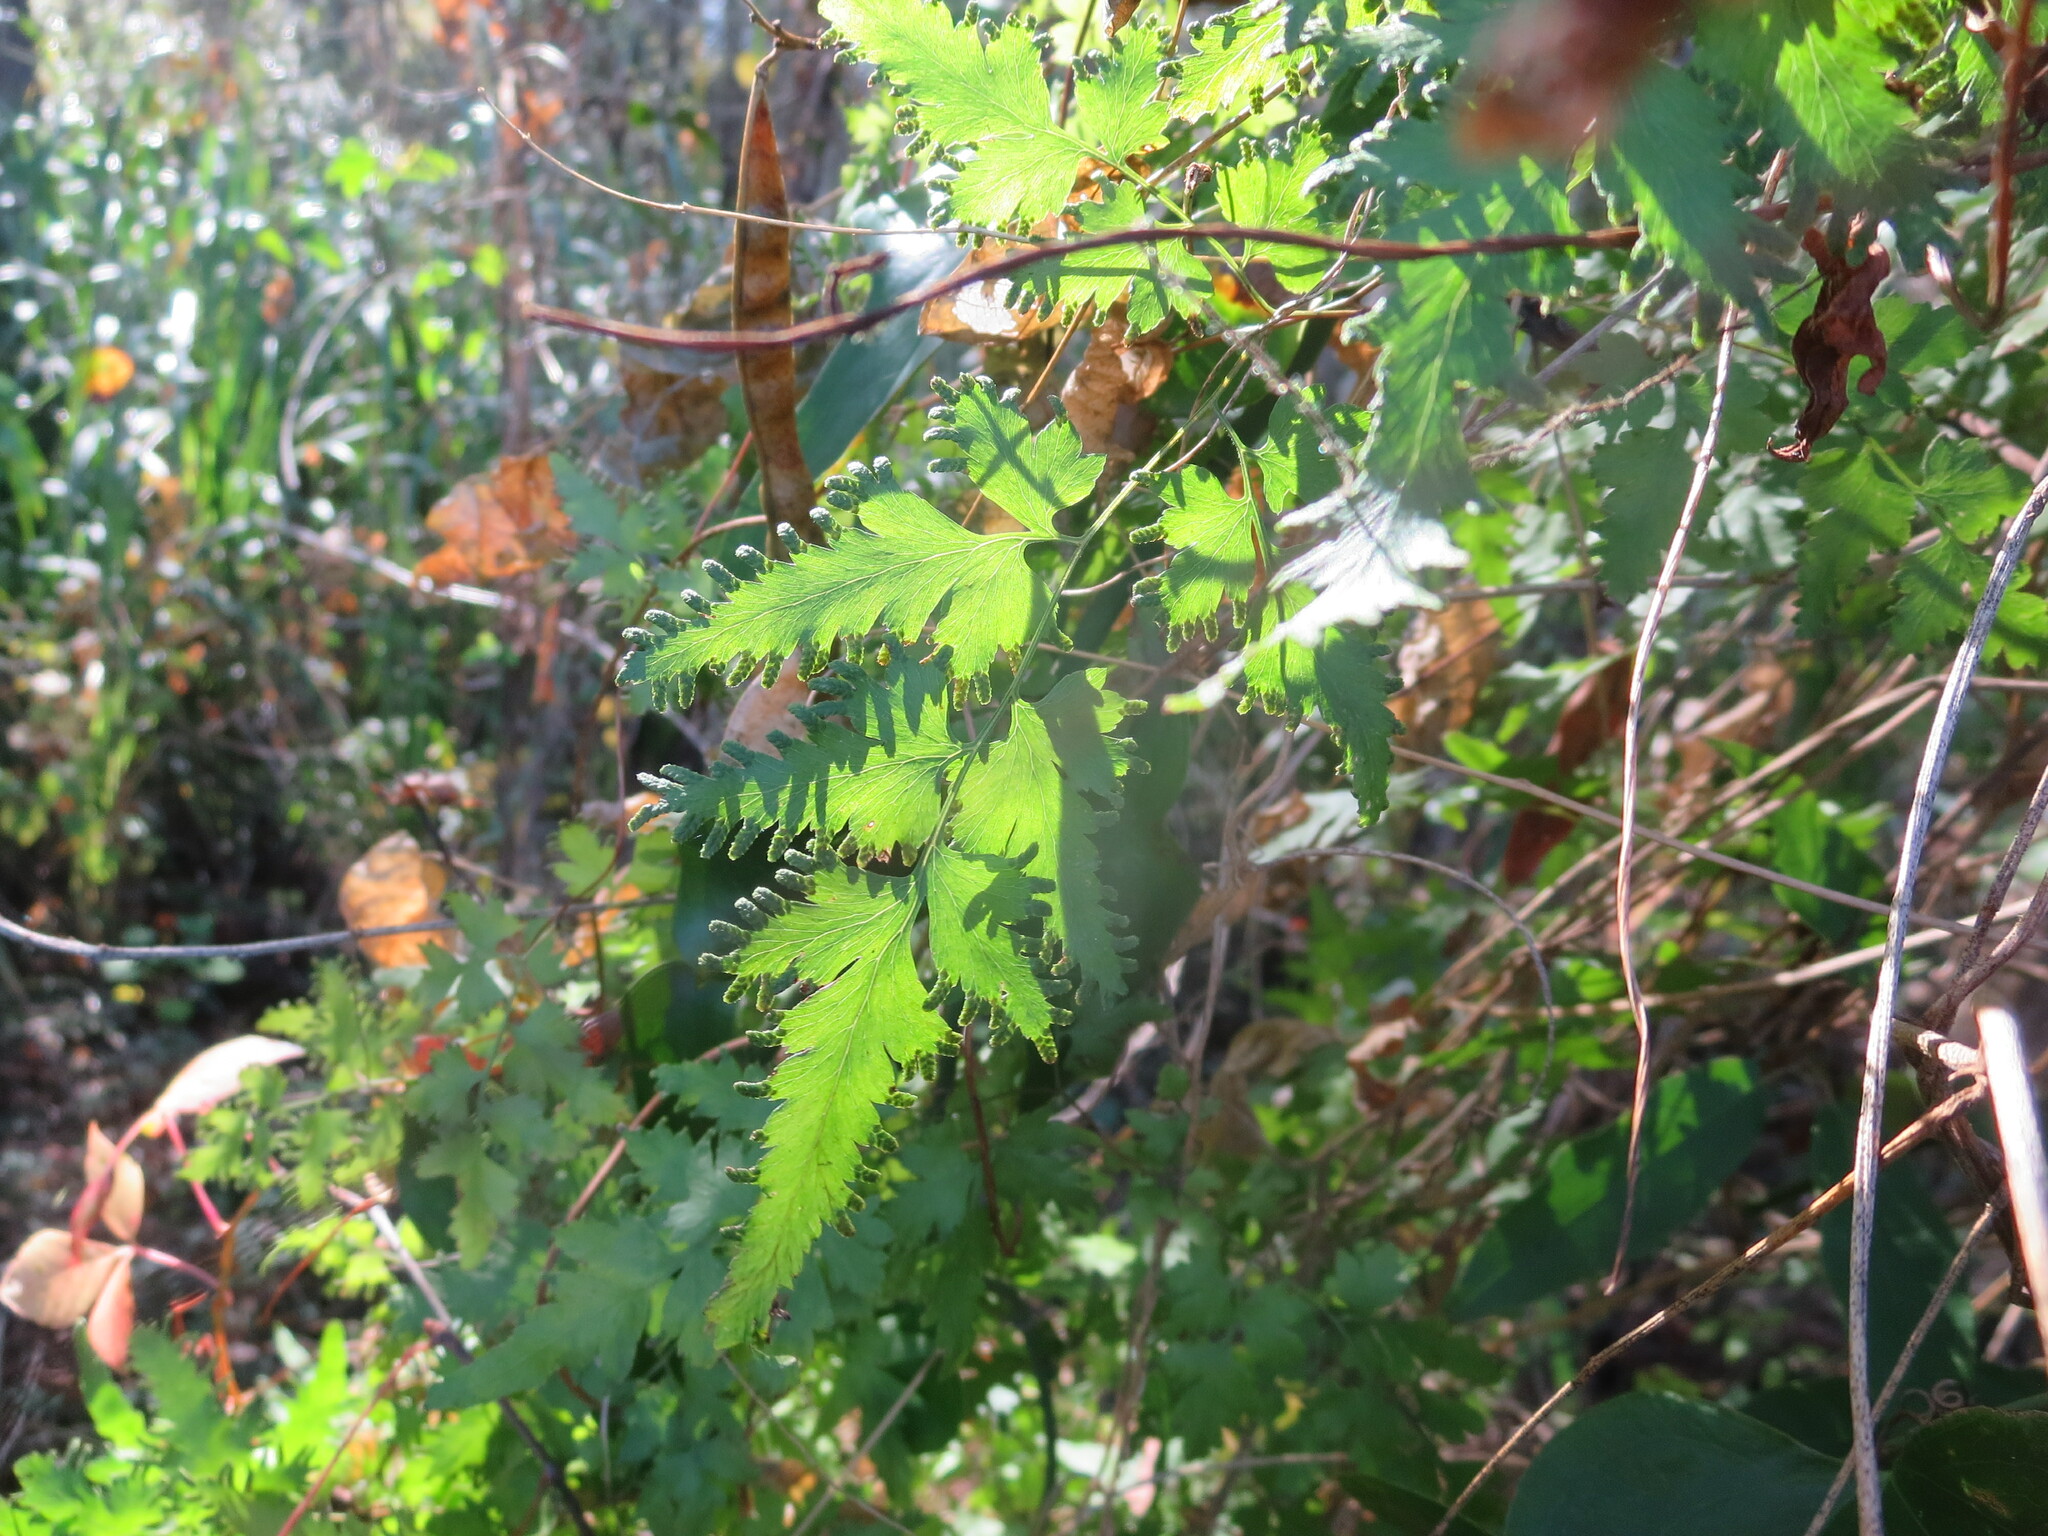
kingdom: Plantae
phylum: Tracheophyta
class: Polypodiopsida
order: Schizaeales
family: Lygodiaceae
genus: Lygodium
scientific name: Lygodium japonicum
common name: Japanese climbing fern
